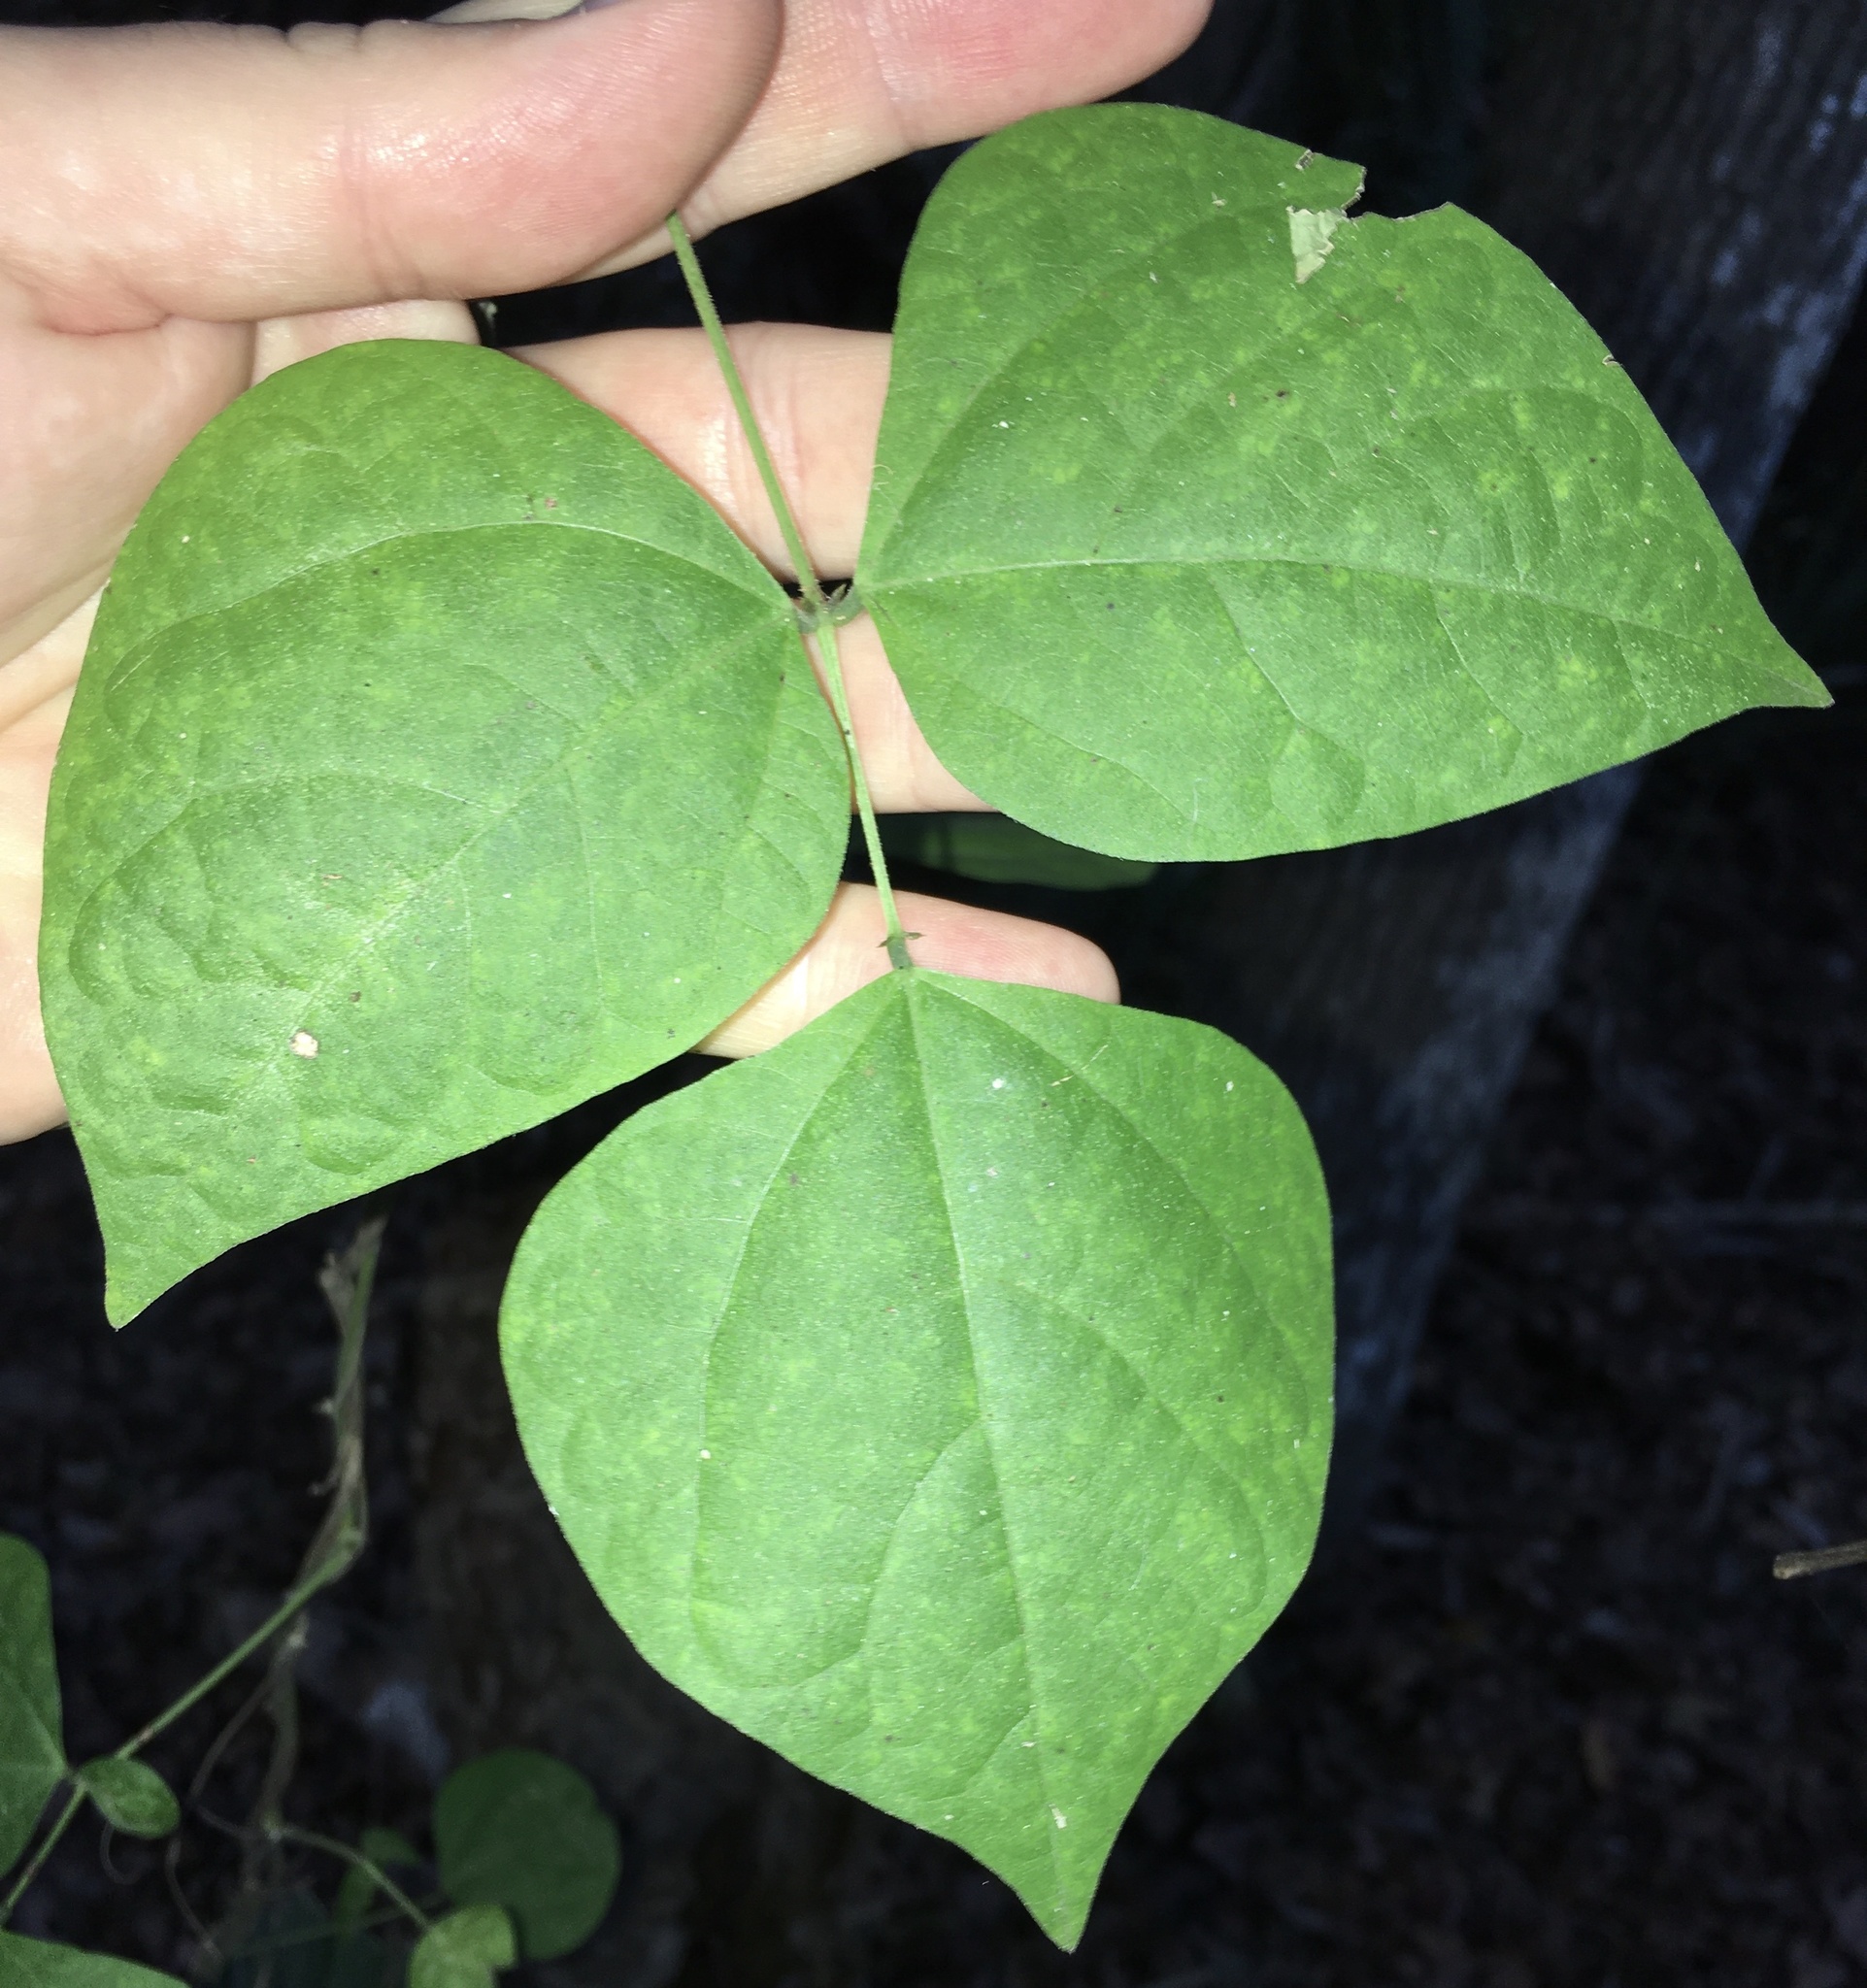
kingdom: Plantae
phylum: Tracheophyta
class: Magnoliopsida
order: Fabales
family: Fabaceae
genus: Phaseolus
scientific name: Phaseolus polystachios
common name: Thicket bean
